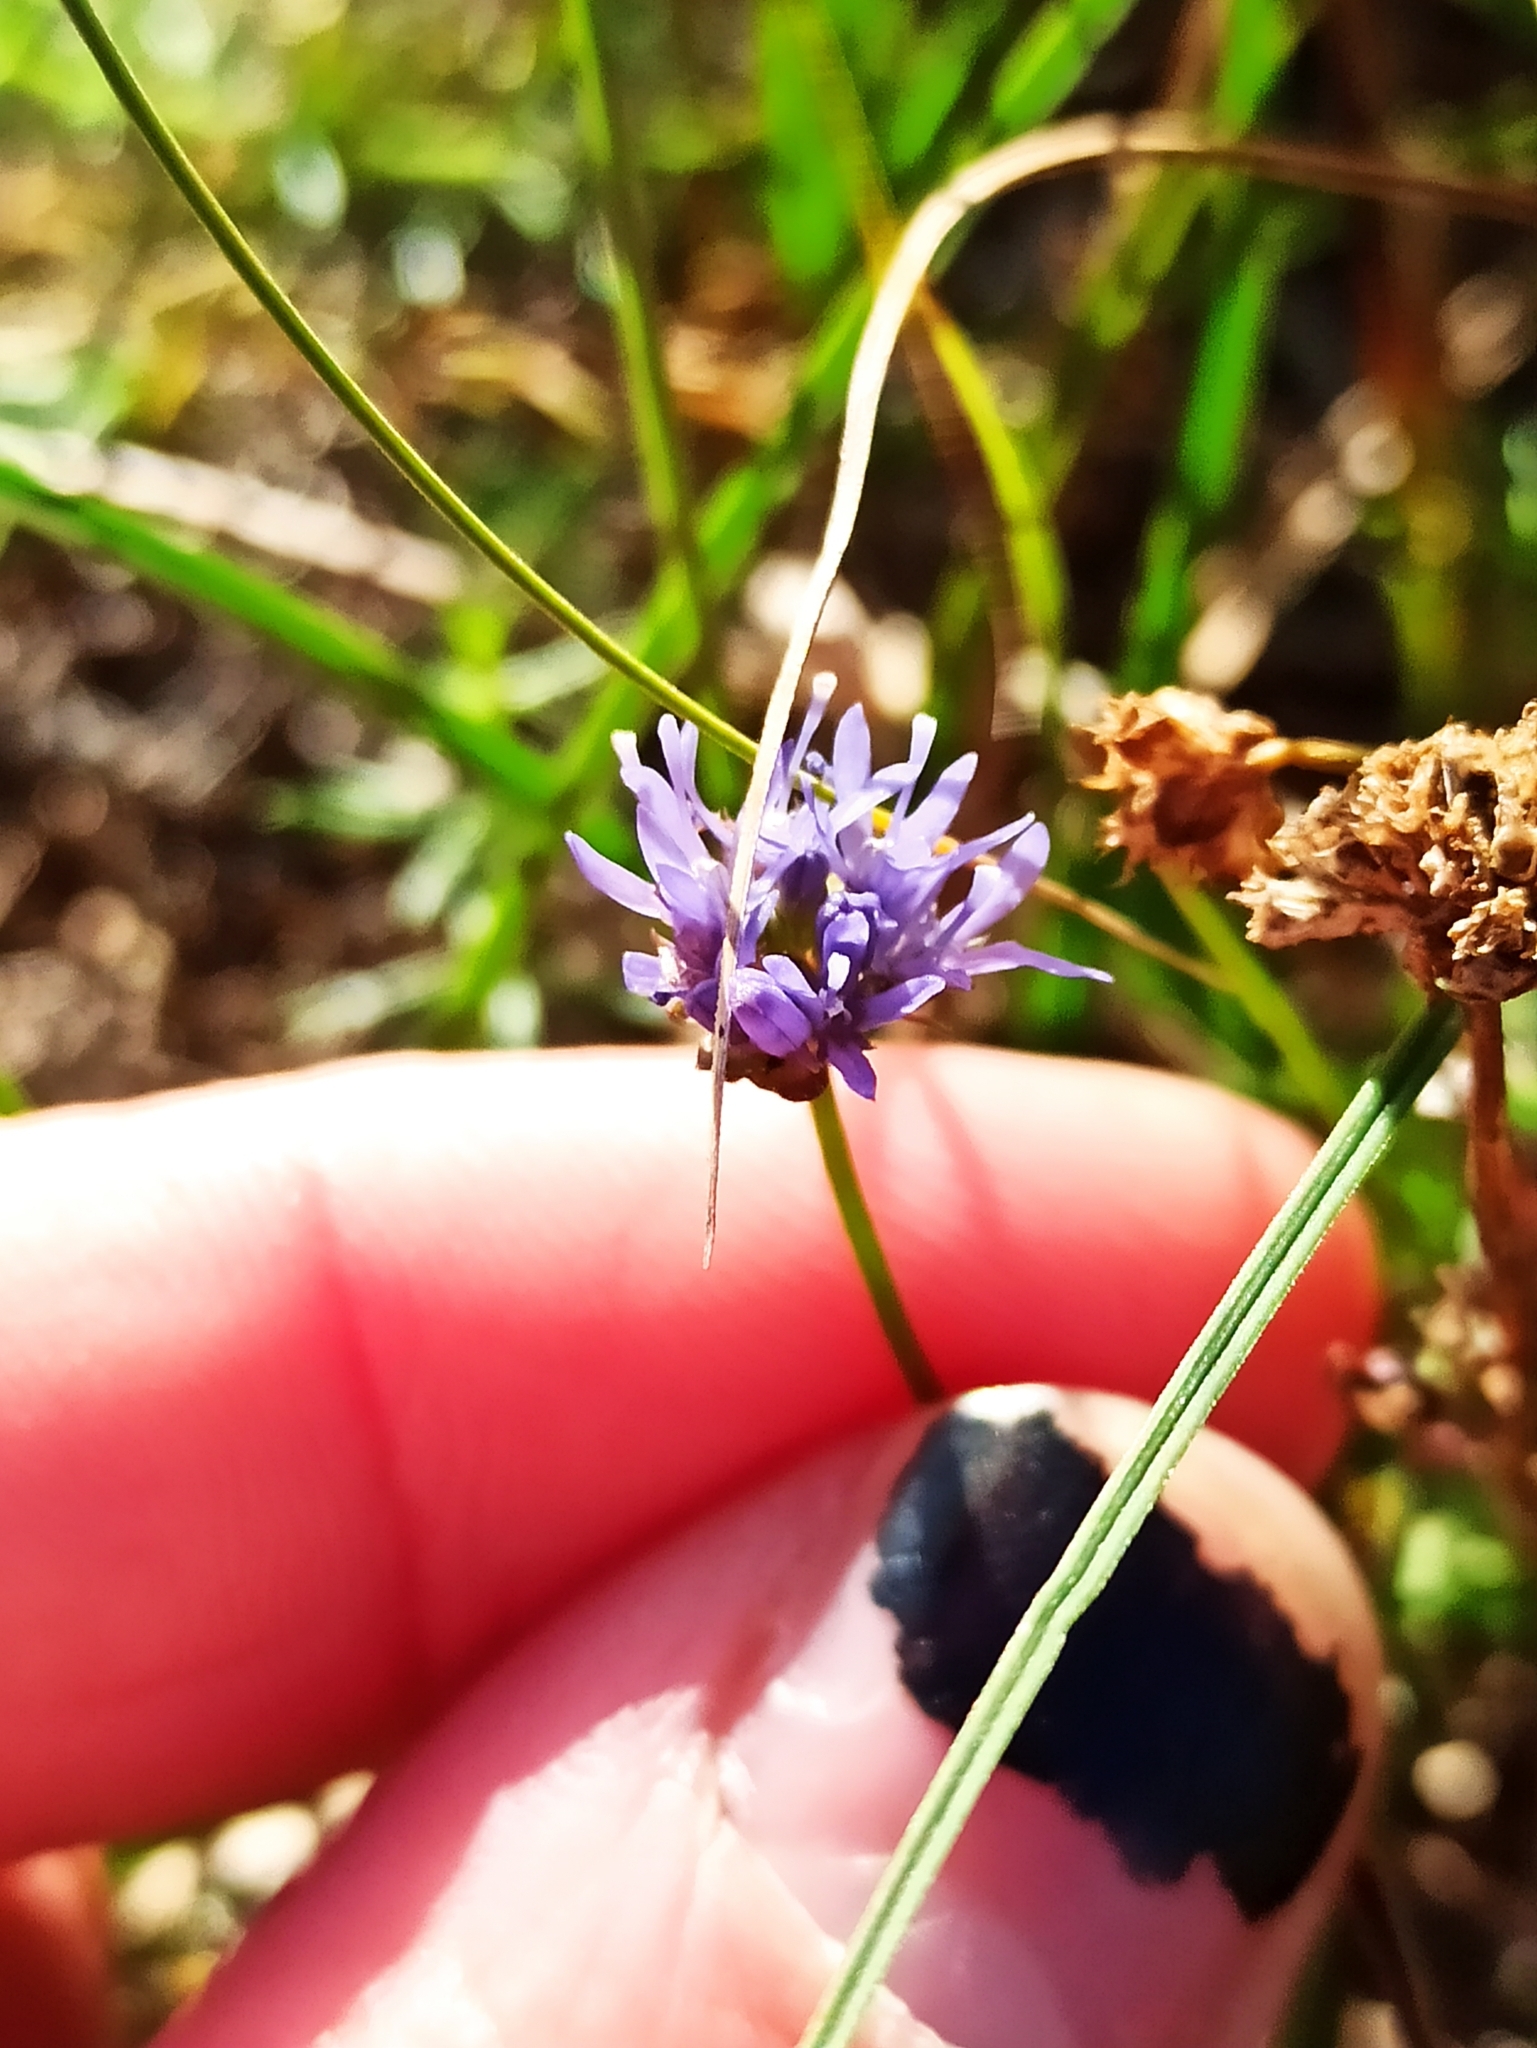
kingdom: Plantae
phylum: Tracheophyta
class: Magnoliopsida
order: Asterales
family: Campanulaceae
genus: Jasione
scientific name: Jasione montana
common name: Sheep's-bit
